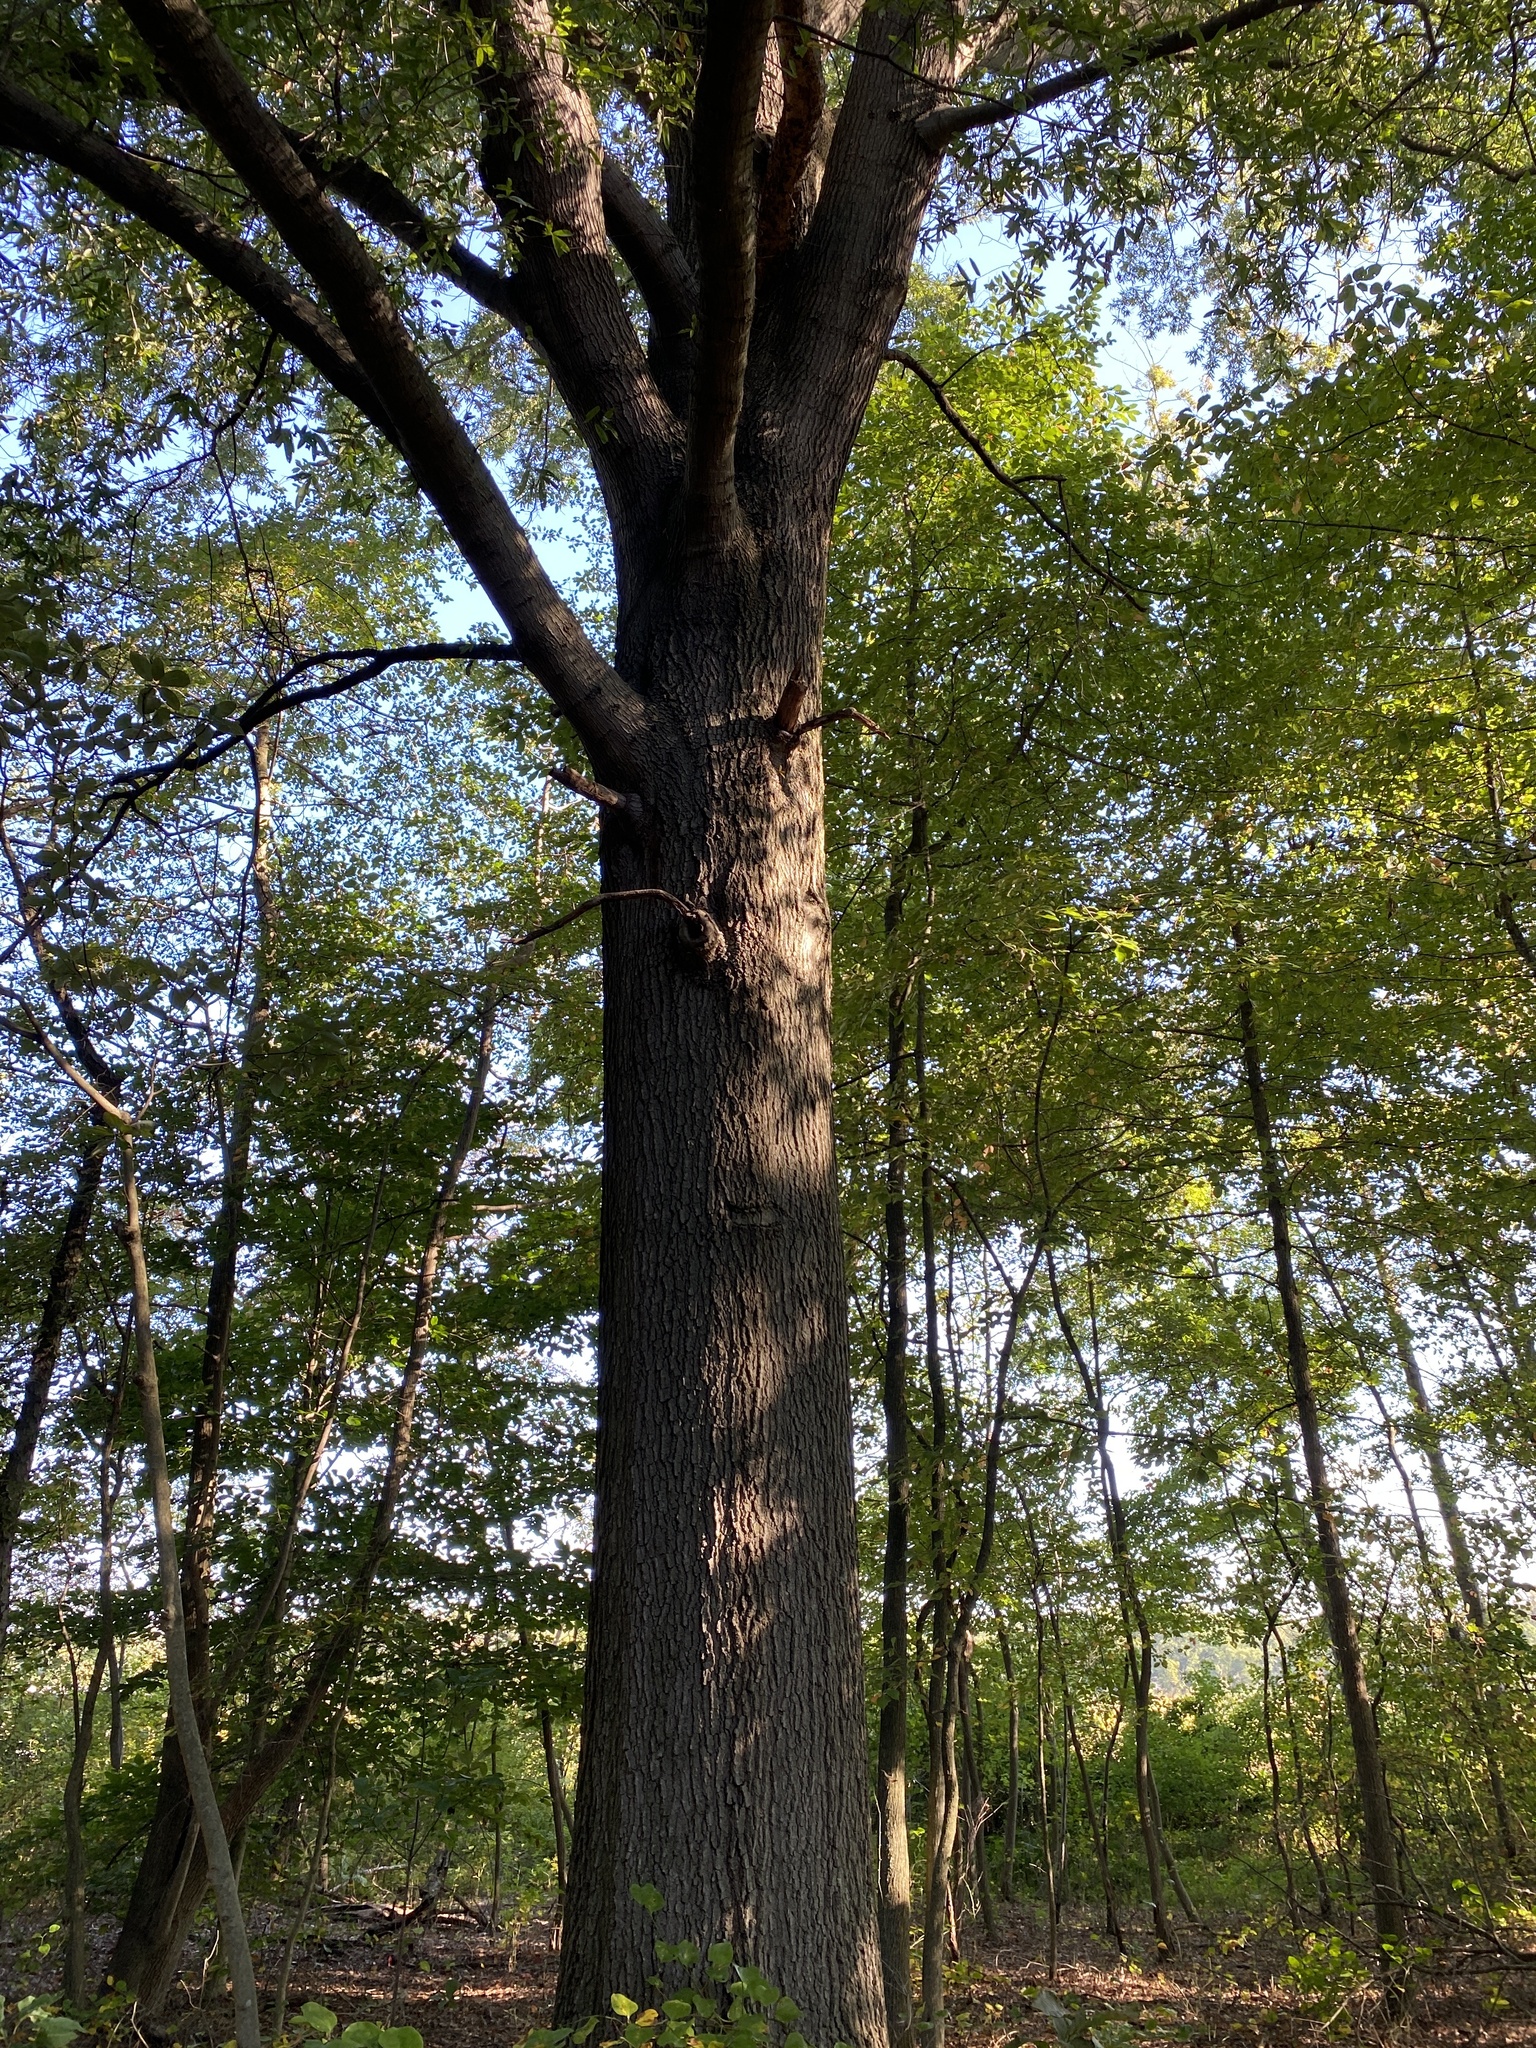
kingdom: Plantae
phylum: Tracheophyta
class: Magnoliopsida
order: Fagales
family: Fagaceae
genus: Quercus
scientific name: Quercus phellos
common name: Willow oak
